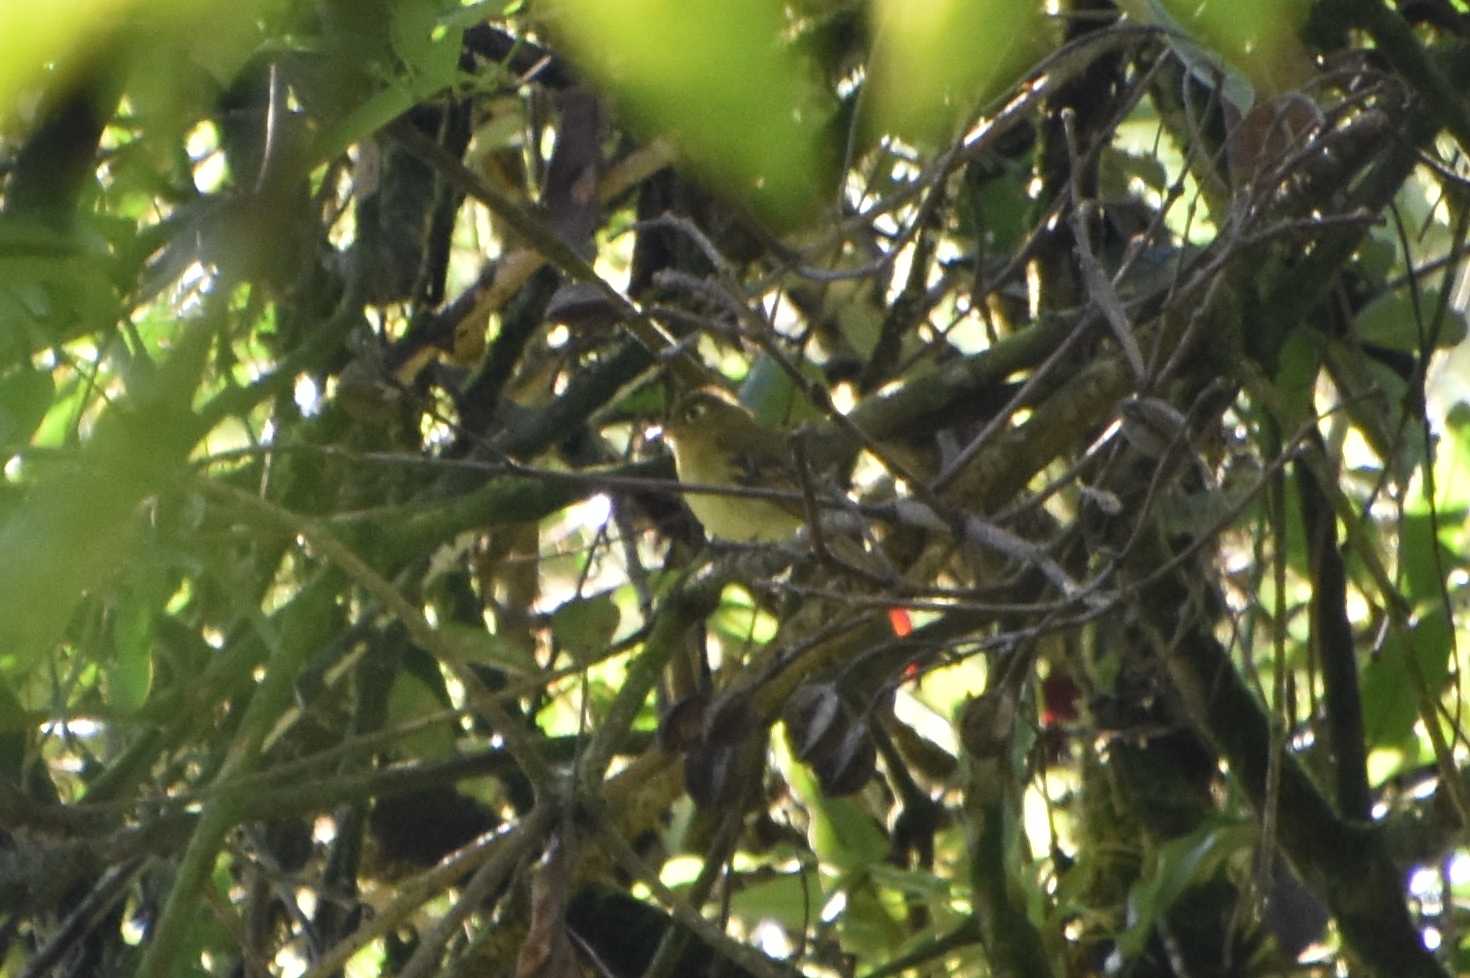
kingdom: Animalia
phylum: Chordata
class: Aves
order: Passeriformes
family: Tyrannidae
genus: Empidonax
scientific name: Empidonax flavescens
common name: Yellowish flycatcher
